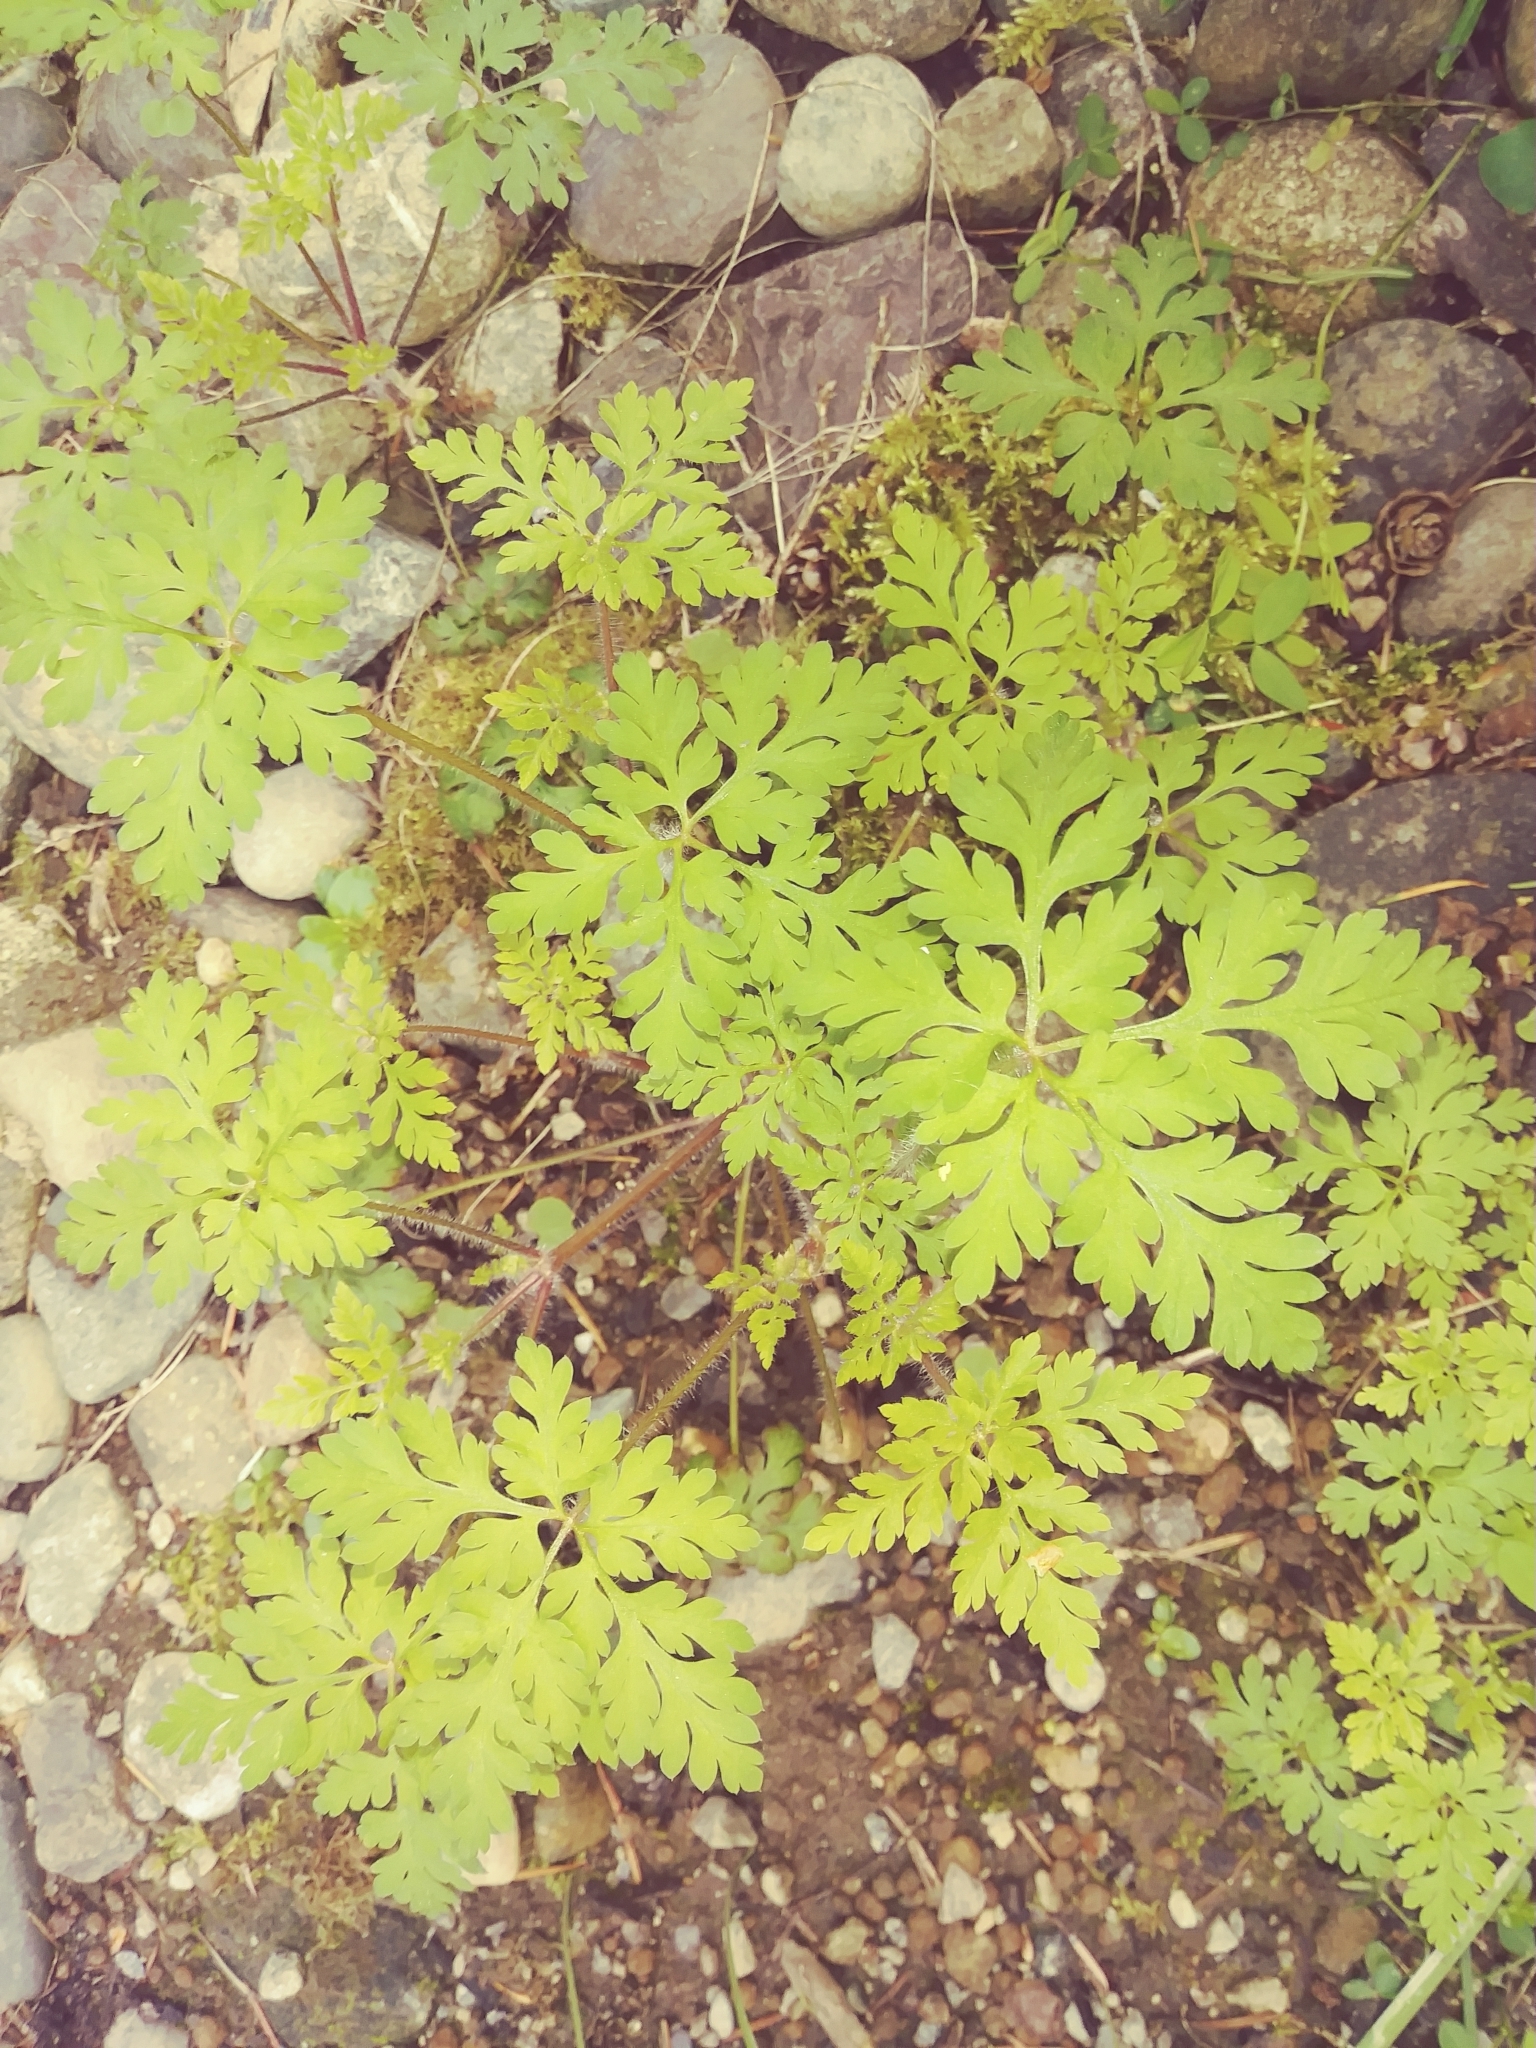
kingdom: Plantae
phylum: Tracheophyta
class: Magnoliopsida
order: Geraniales
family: Geraniaceae
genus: Geranium
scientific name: Geranium robertianum
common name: Herb-robert
